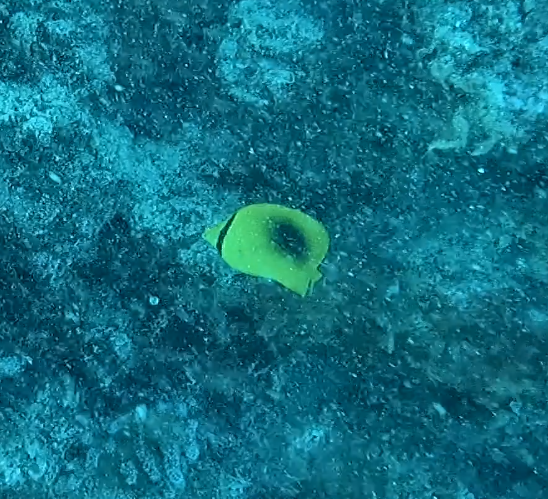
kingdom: Animalia
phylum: Chordata
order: Perciformes
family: Chaetodontidae
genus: Chaetodon
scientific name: Chaetodon speculum
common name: Mirror butterflyfish
